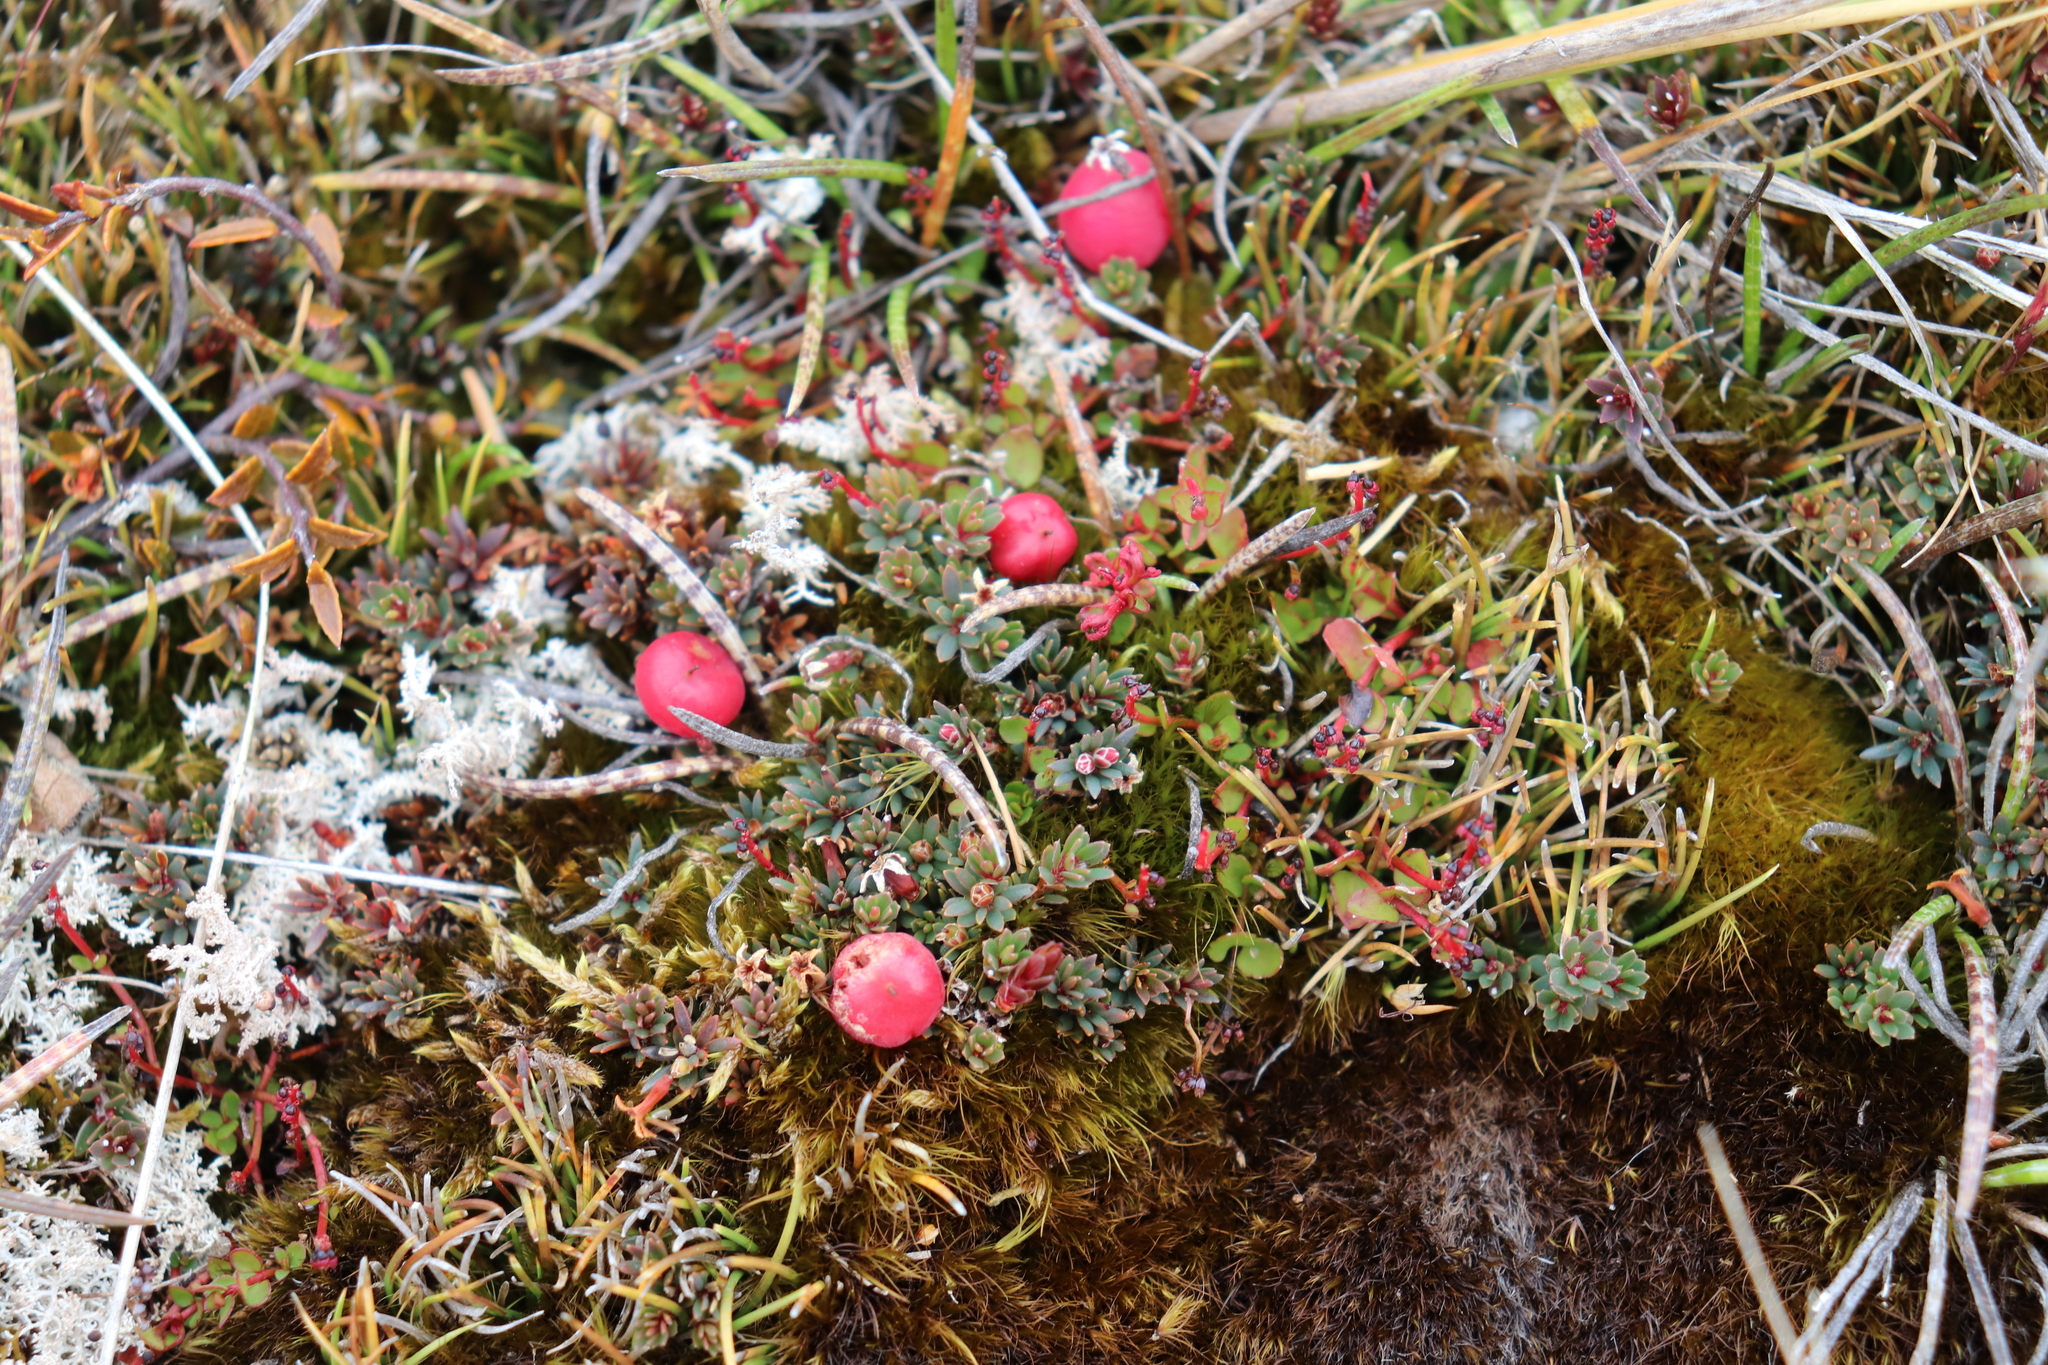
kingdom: Plantae
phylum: Tracheophyta
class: Magnoliopsida
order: Ericales
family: Ericaceae
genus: Pentachondra
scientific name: Pentachondra pumila
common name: Carpet-heath
